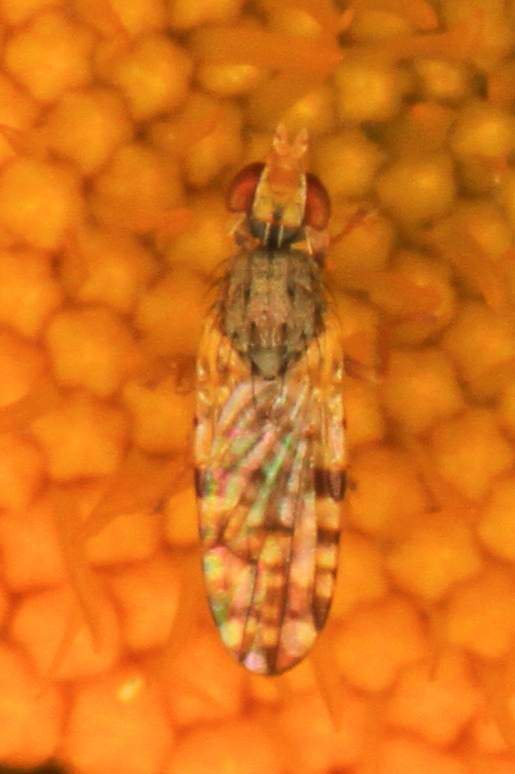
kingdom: Animalia
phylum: Arthropoda
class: Insecta
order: Diptera
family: Tephritidae
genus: Dioxyna
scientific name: Dioxyna picciola
